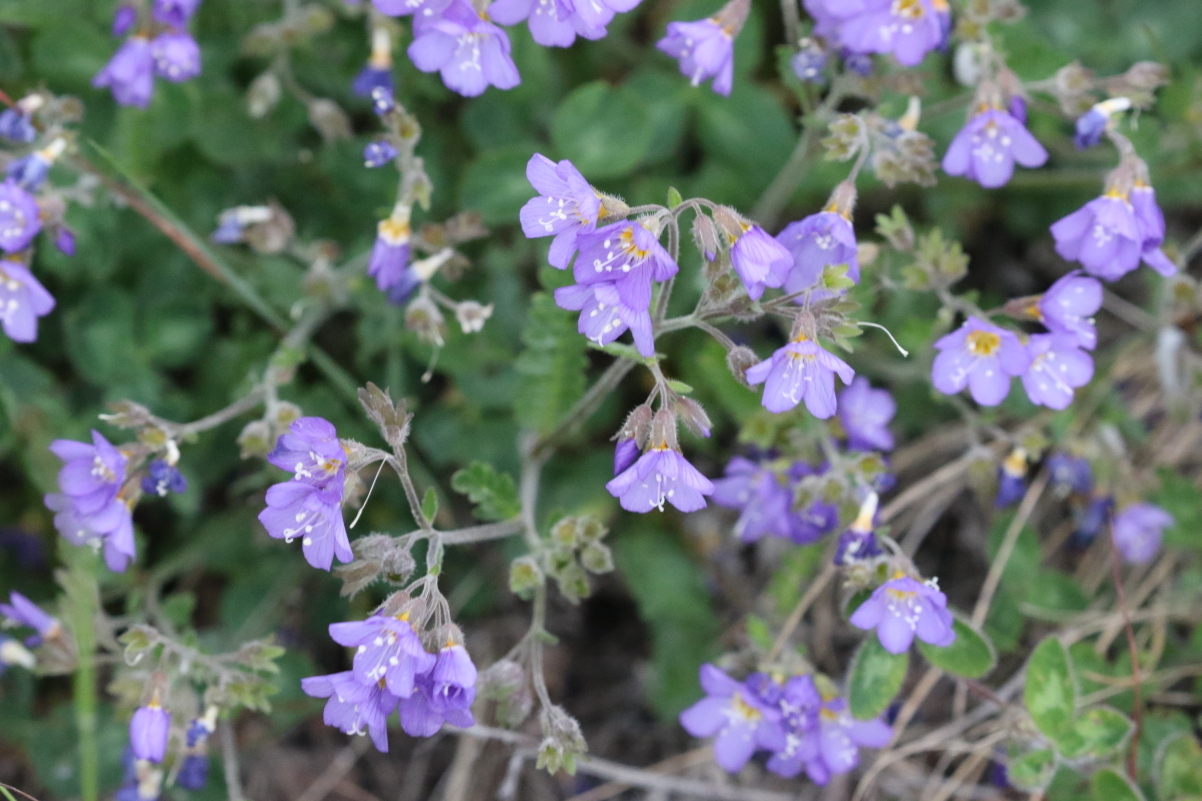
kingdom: Plantae
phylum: Tracheophyta
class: Magnoliopsida
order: Ericales
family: Polemoniaceae
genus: Polemonium
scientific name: Polemonium pulcherrimum
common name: Short jacob's-ladder
